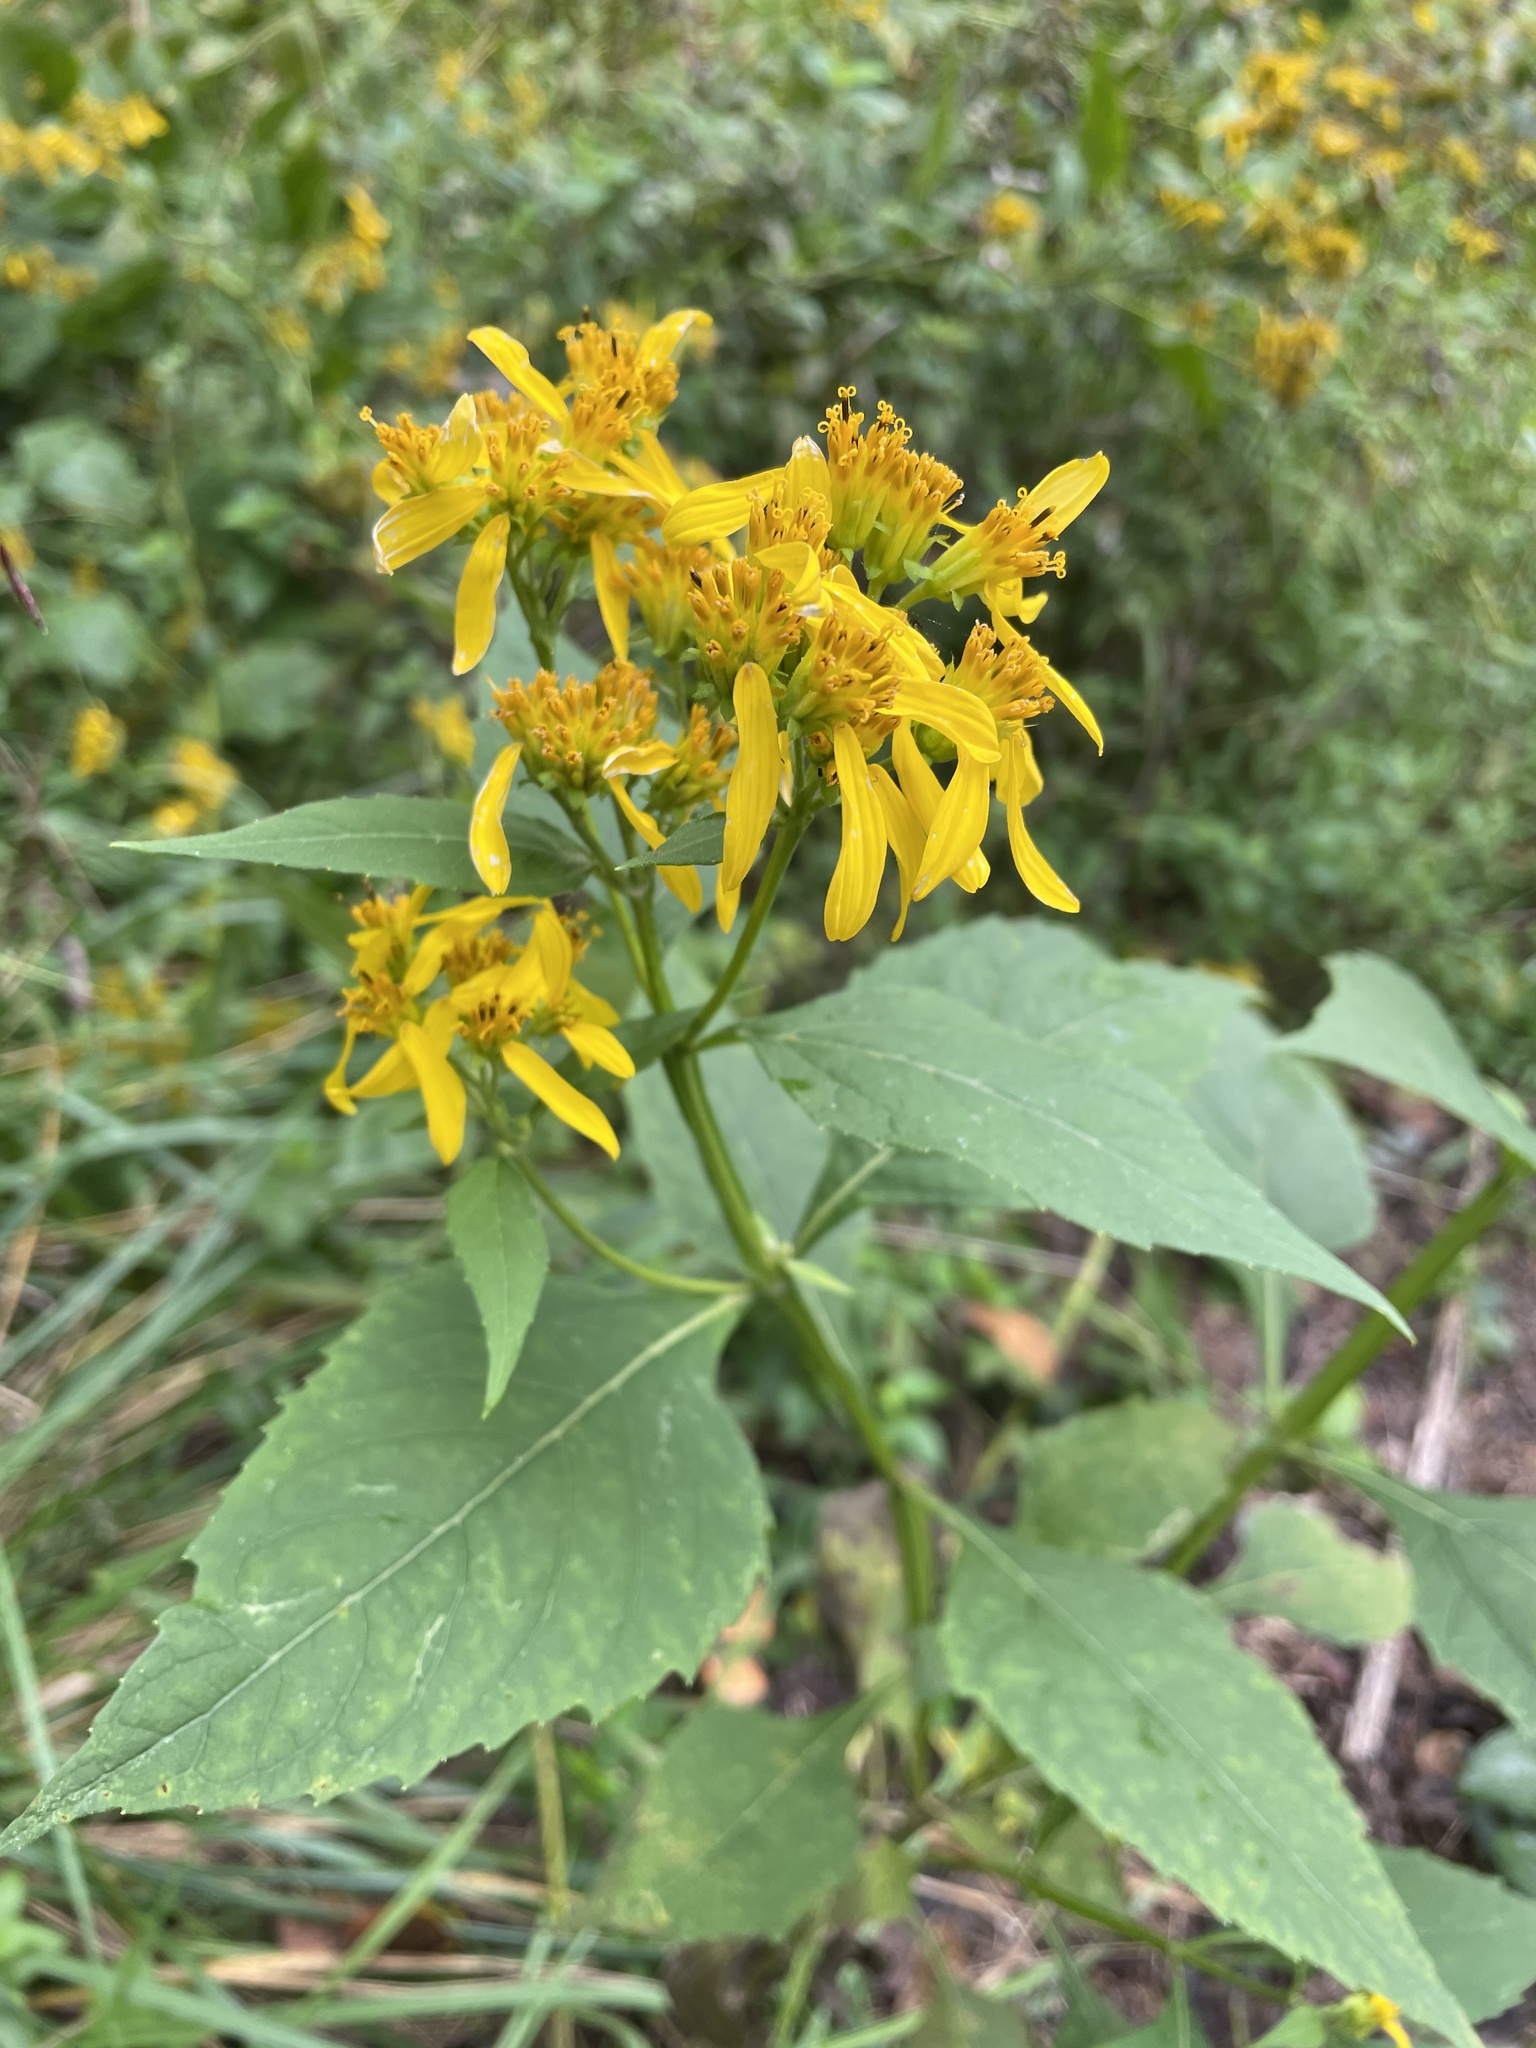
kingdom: Plantae
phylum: Tracheophyta
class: Magnoliopsida
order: Asterales
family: Asteraceae
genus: Verbesina
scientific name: Verbesina occidentalis
